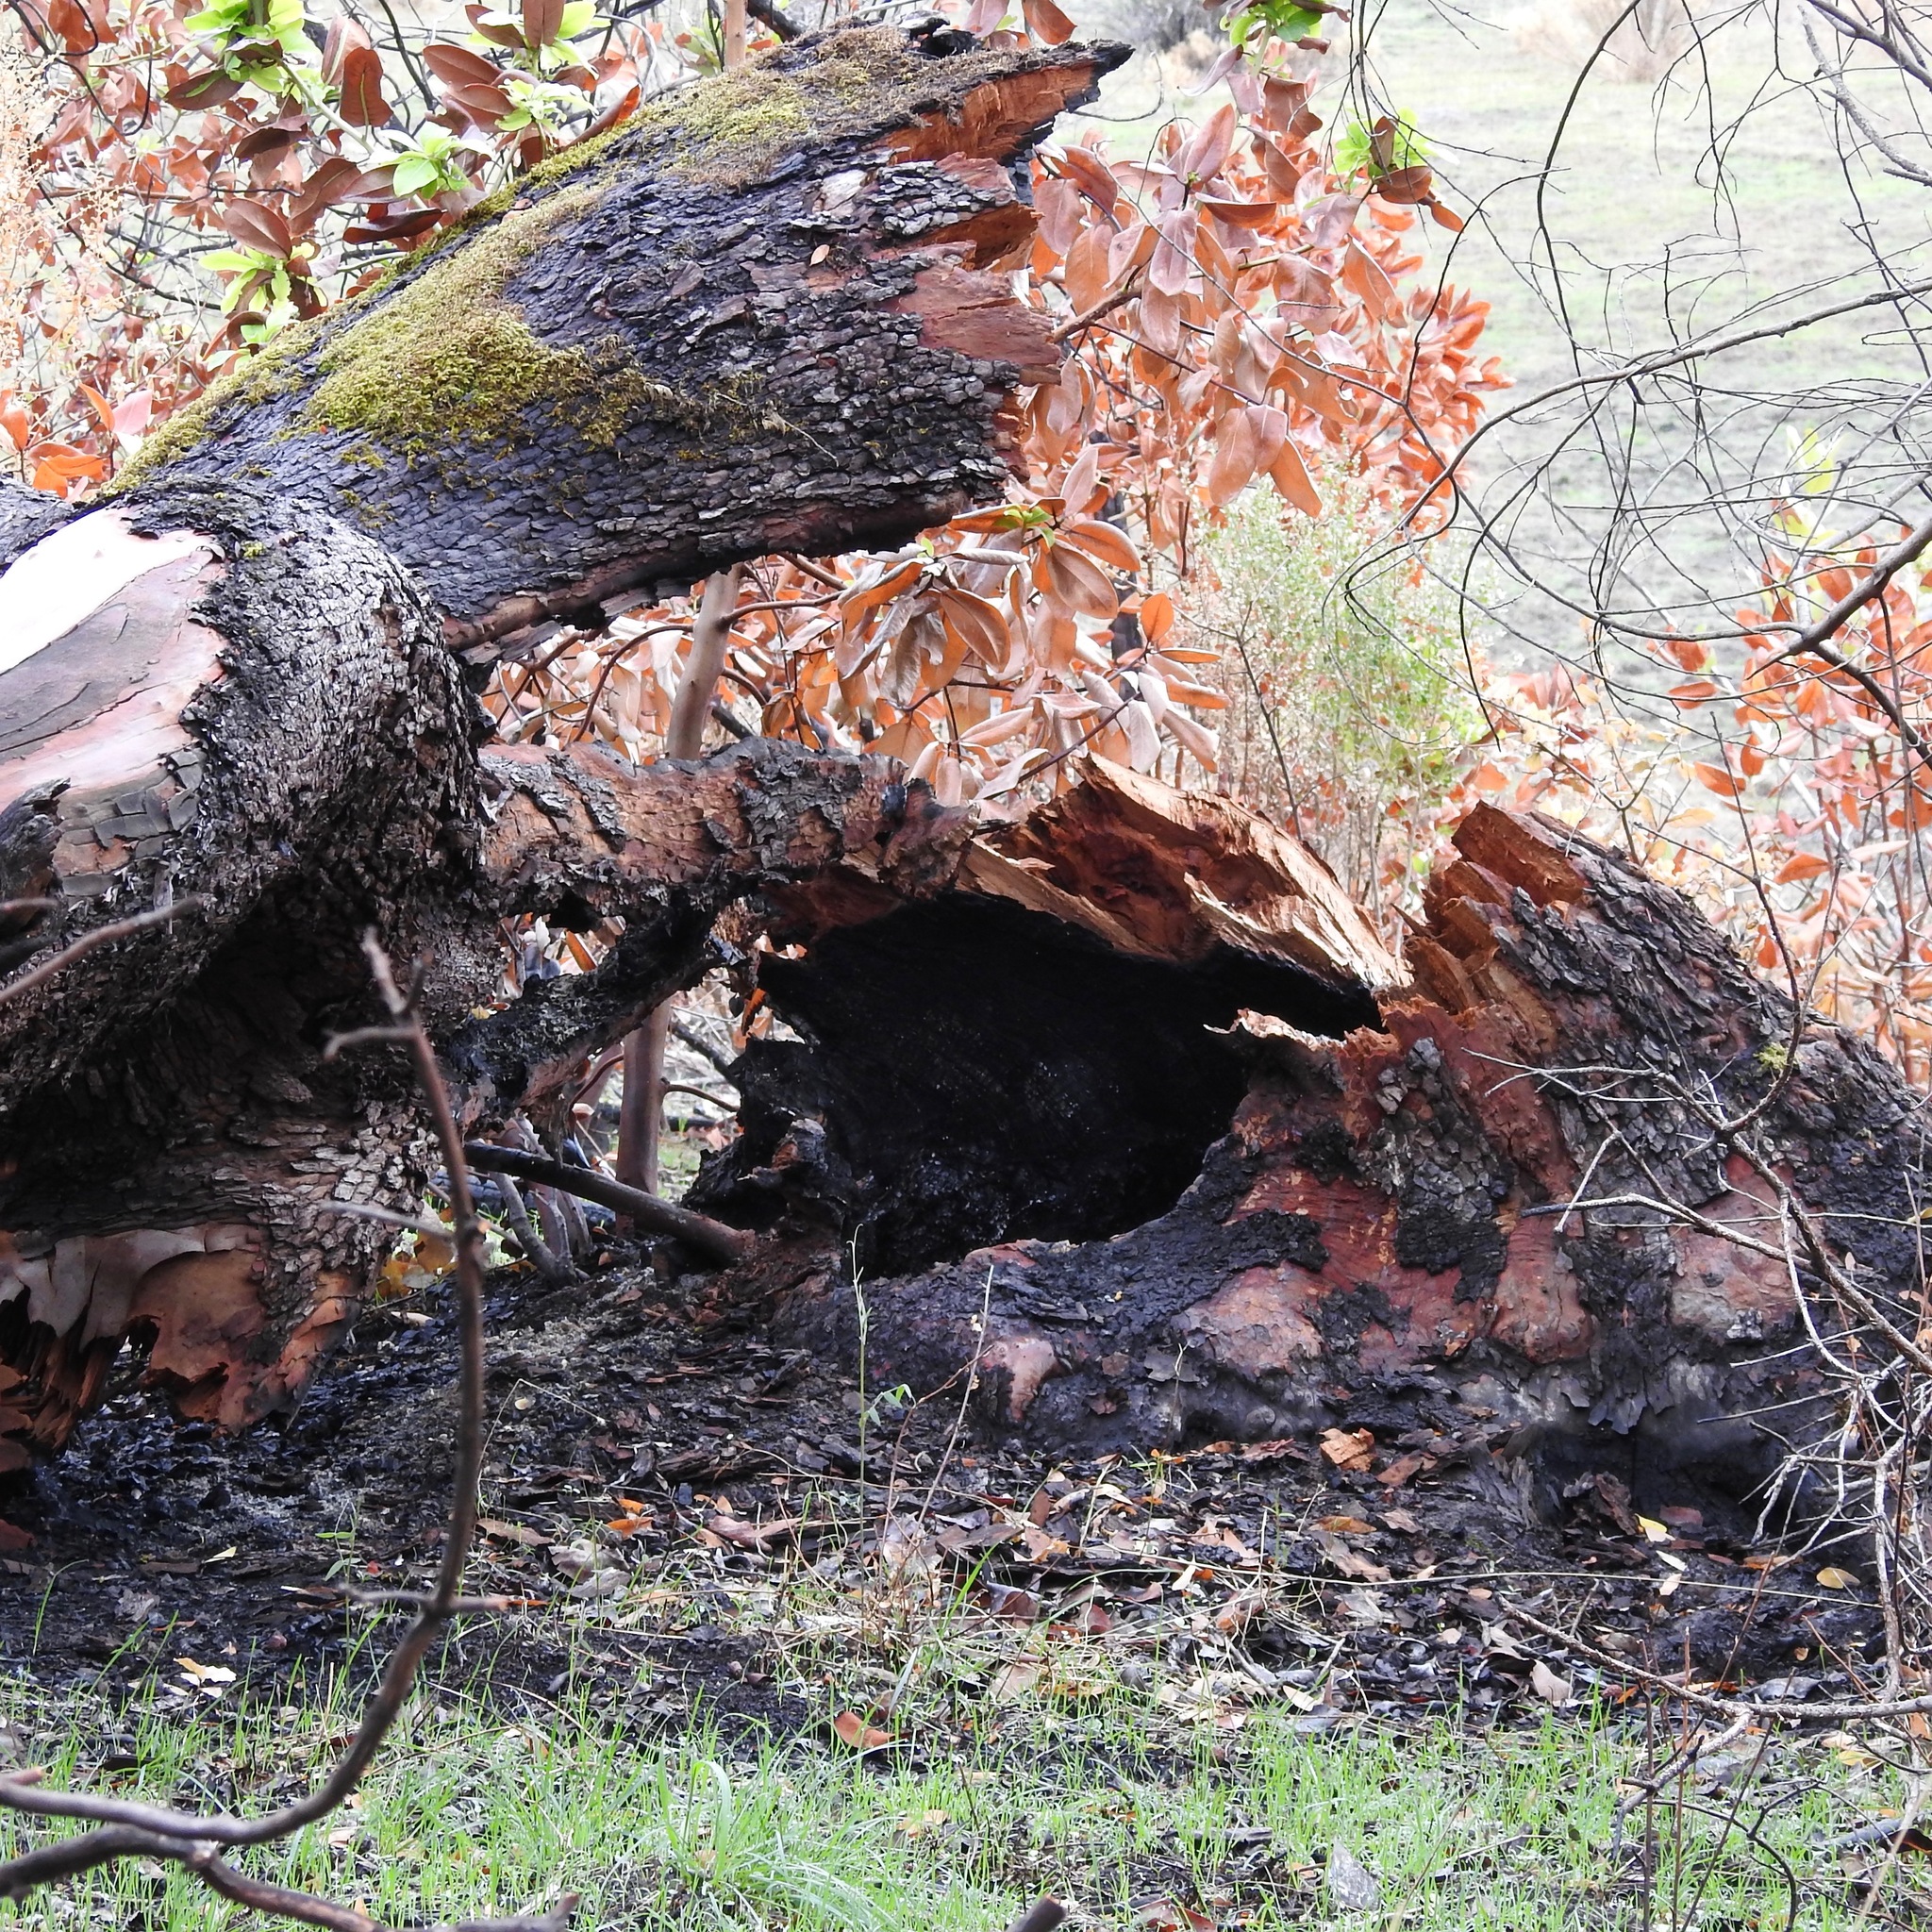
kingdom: Plantae
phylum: Tracheophyta
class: Magnoliopsida
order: Ericales
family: Ericaceae
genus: Arbutus
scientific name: Arbutus menziesii
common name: Pacific madrone
